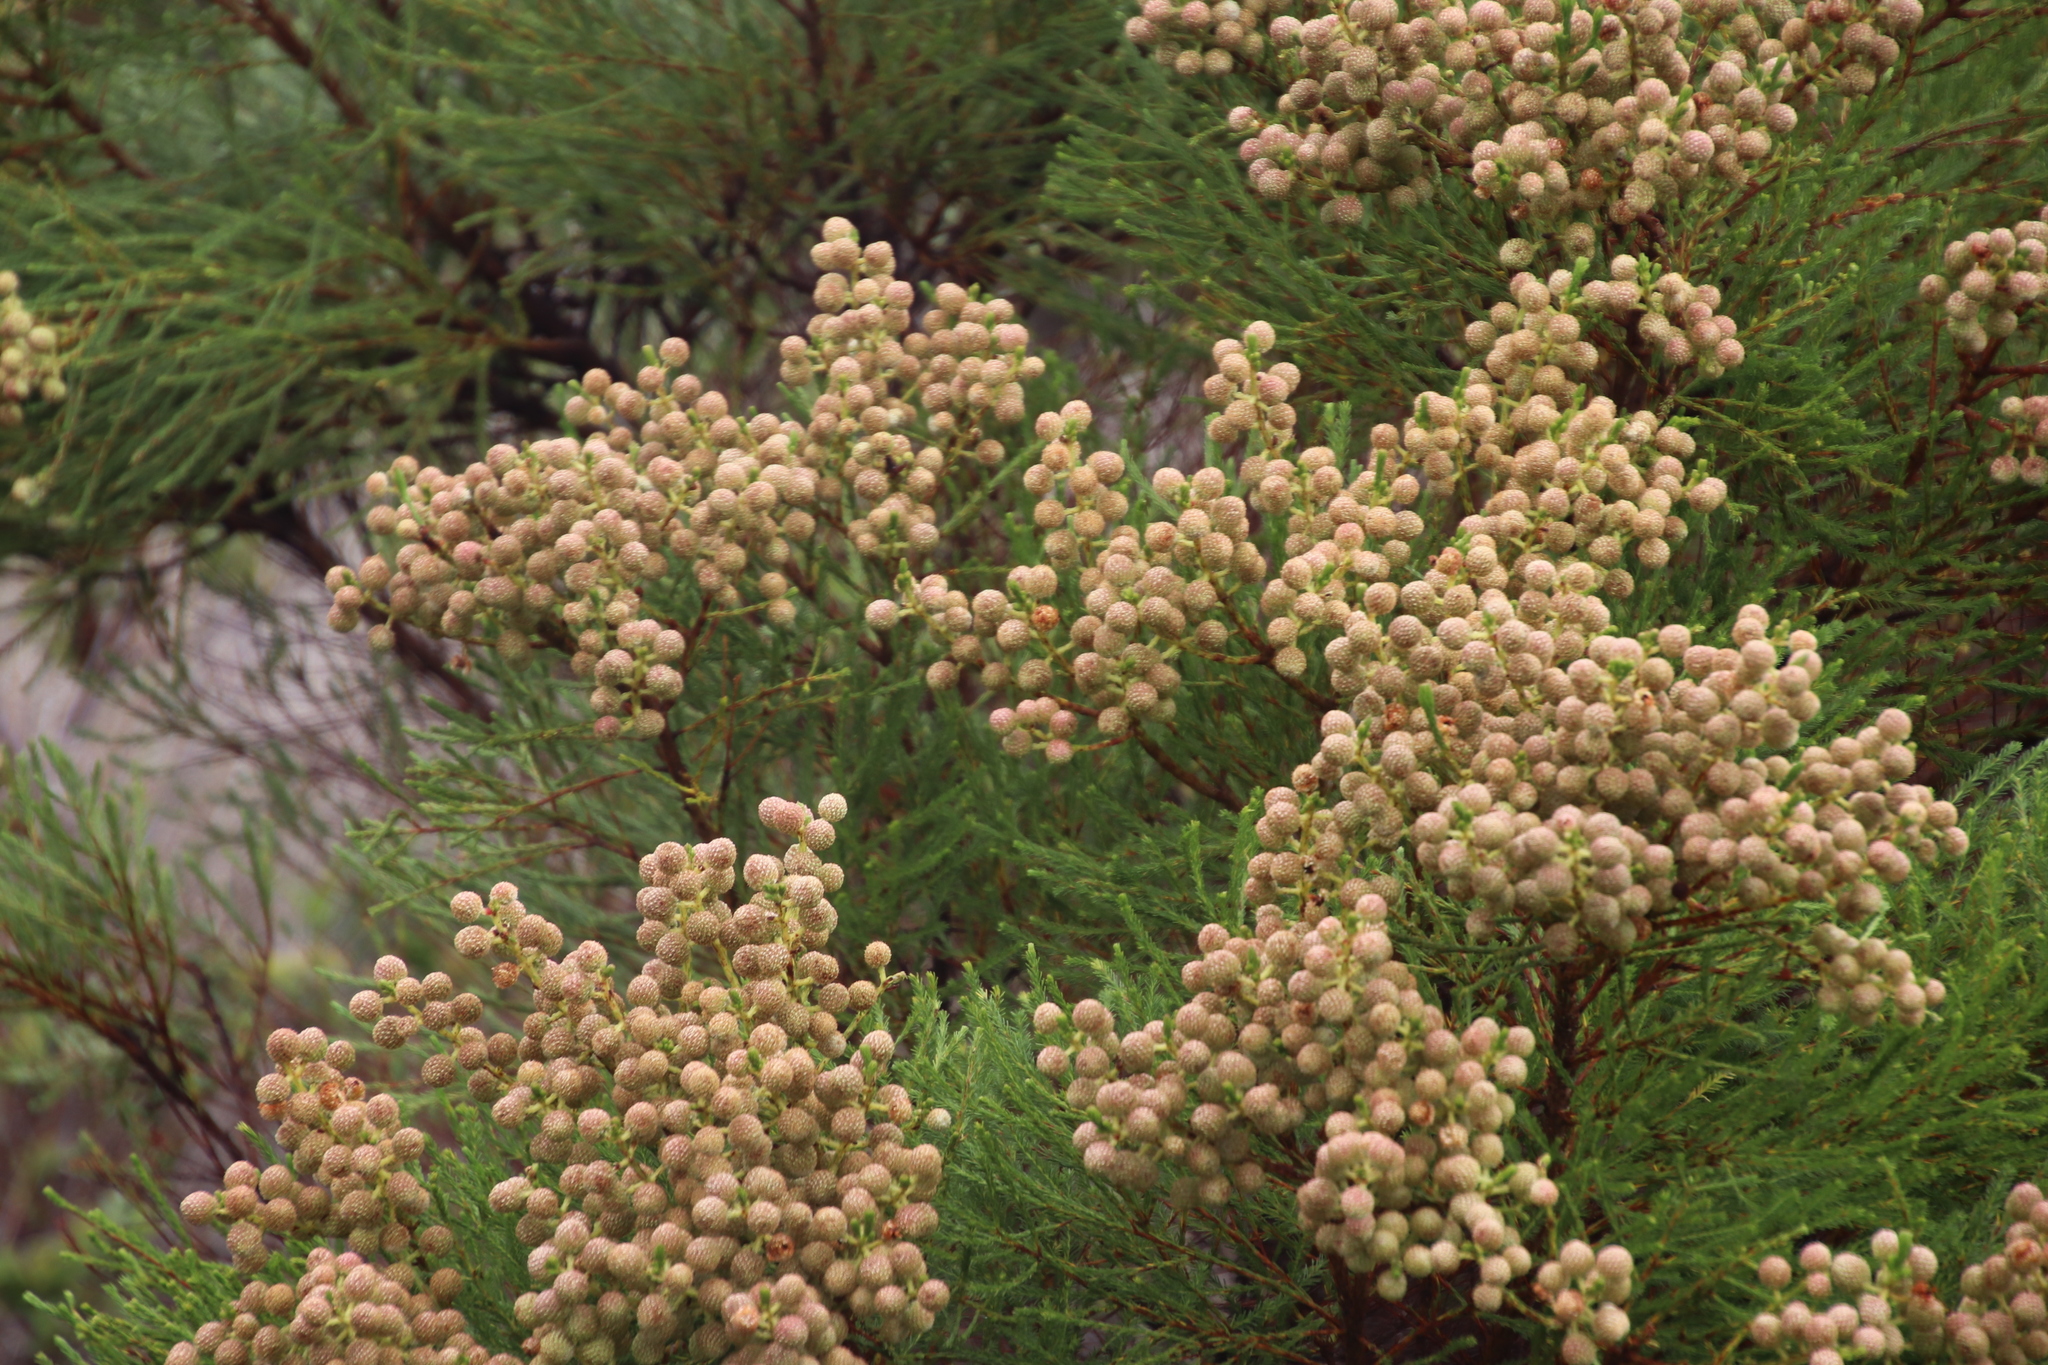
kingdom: Plantae
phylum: Tracheophyta
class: Magnoliopsida
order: Bruniales
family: Bruniaceae
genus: Berzelia
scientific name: Berzelia lanuginosa
